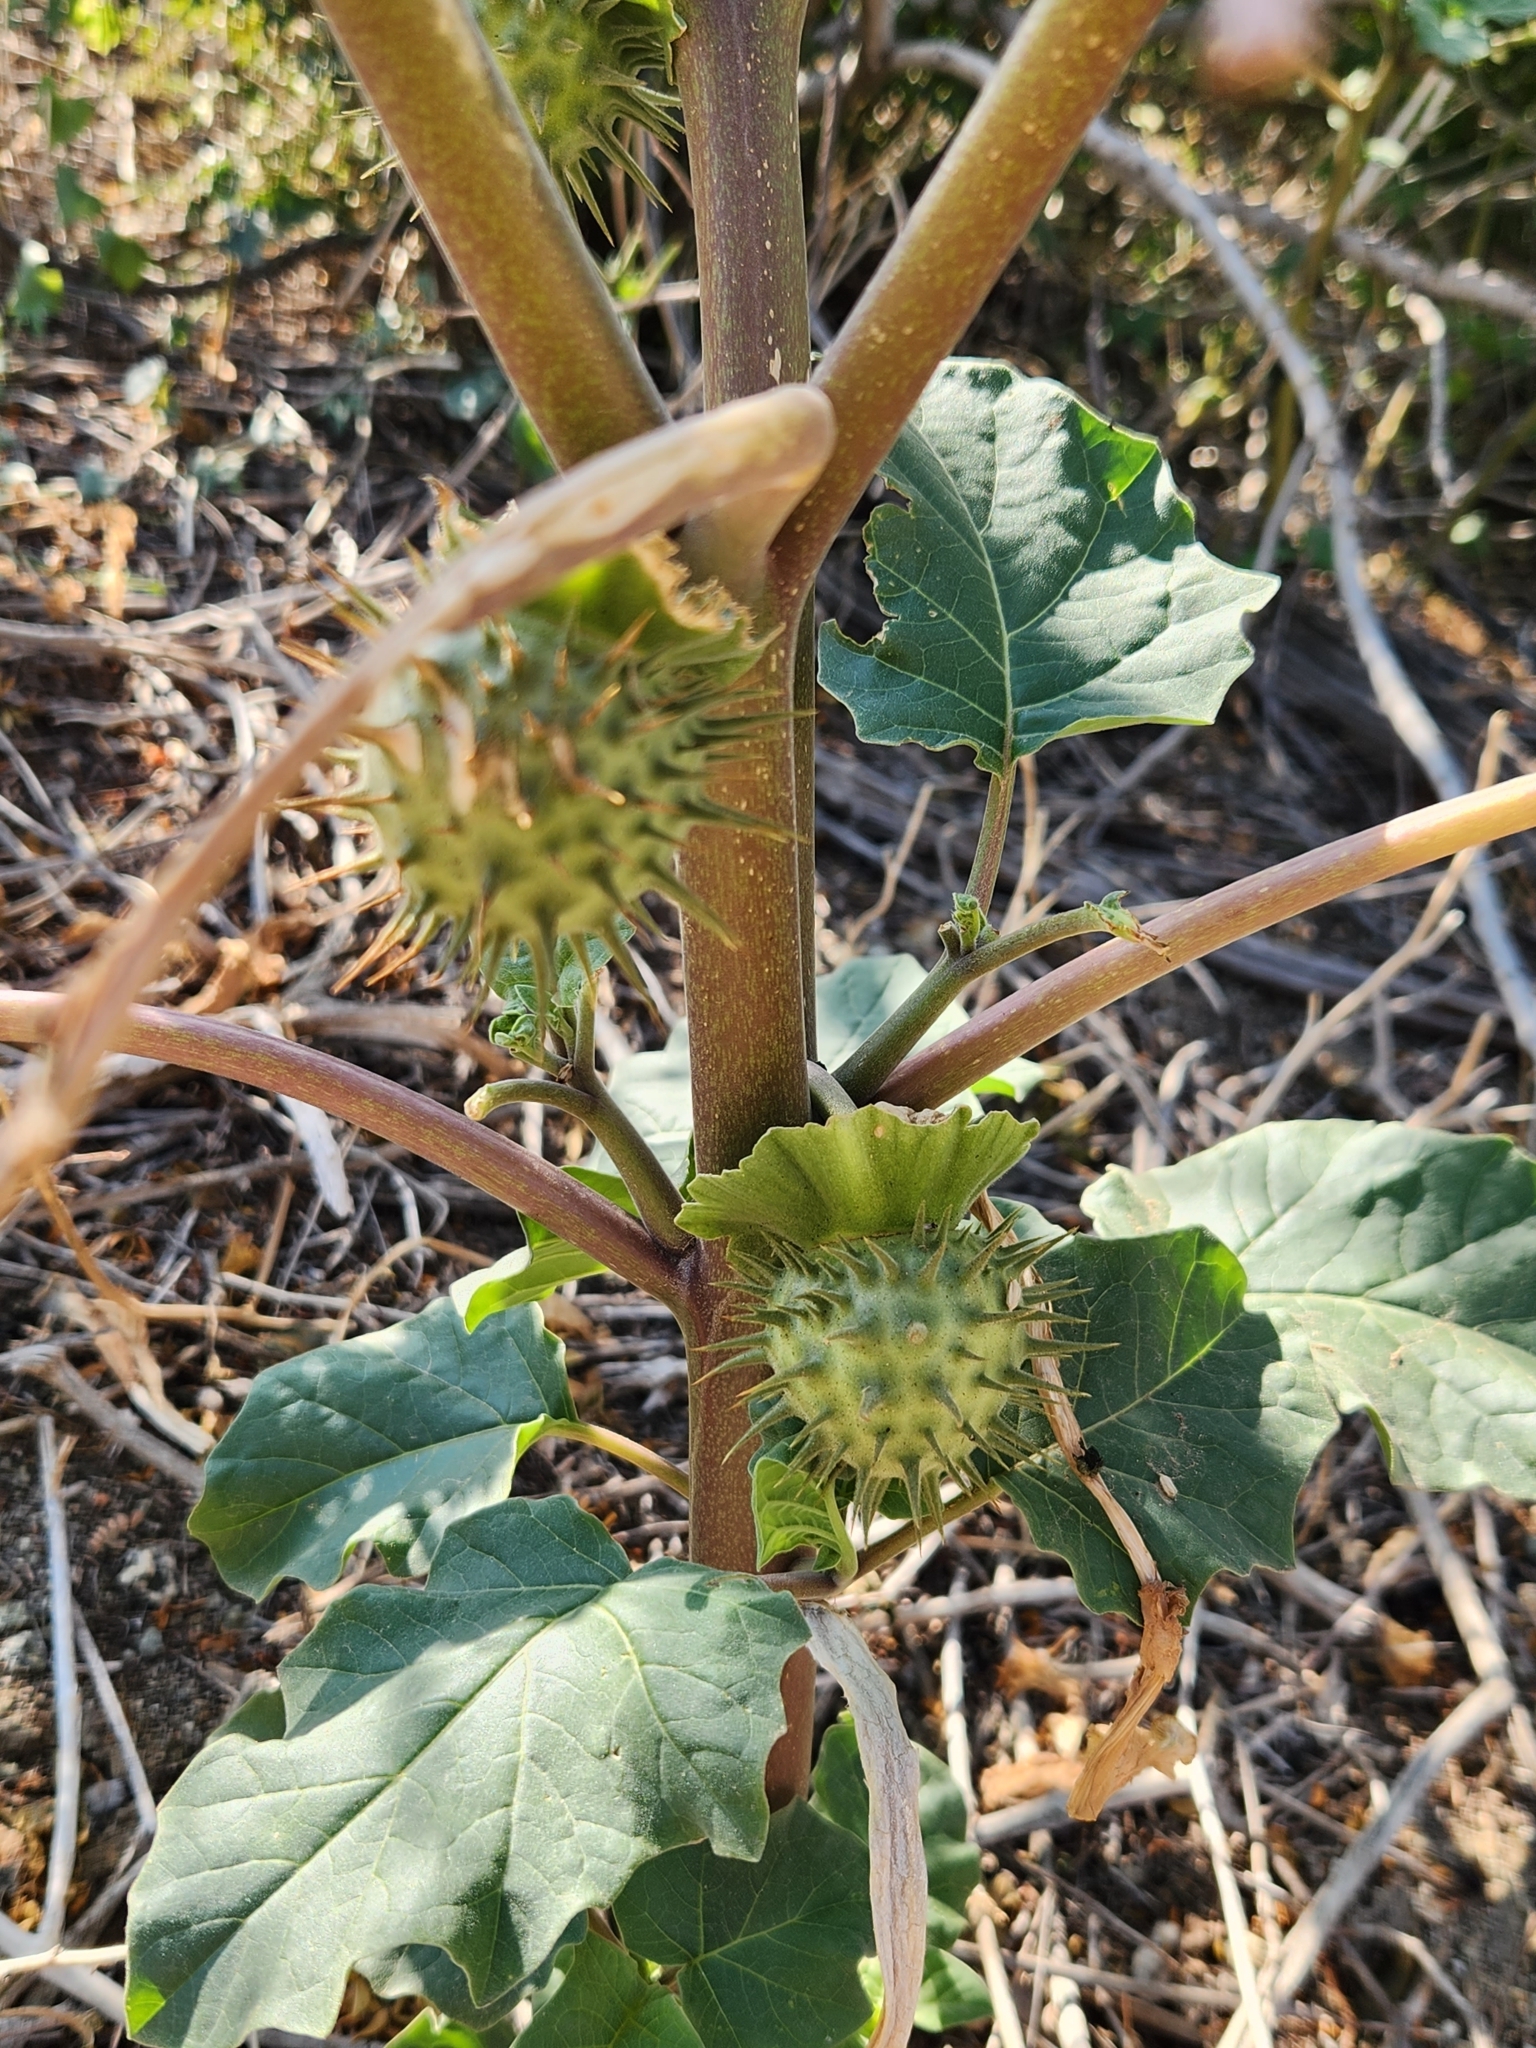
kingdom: Plantae
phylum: Tracheophyta
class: Magnoliopsida
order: Solanales
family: Solanaceae
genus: Datura
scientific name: Datura discolor
